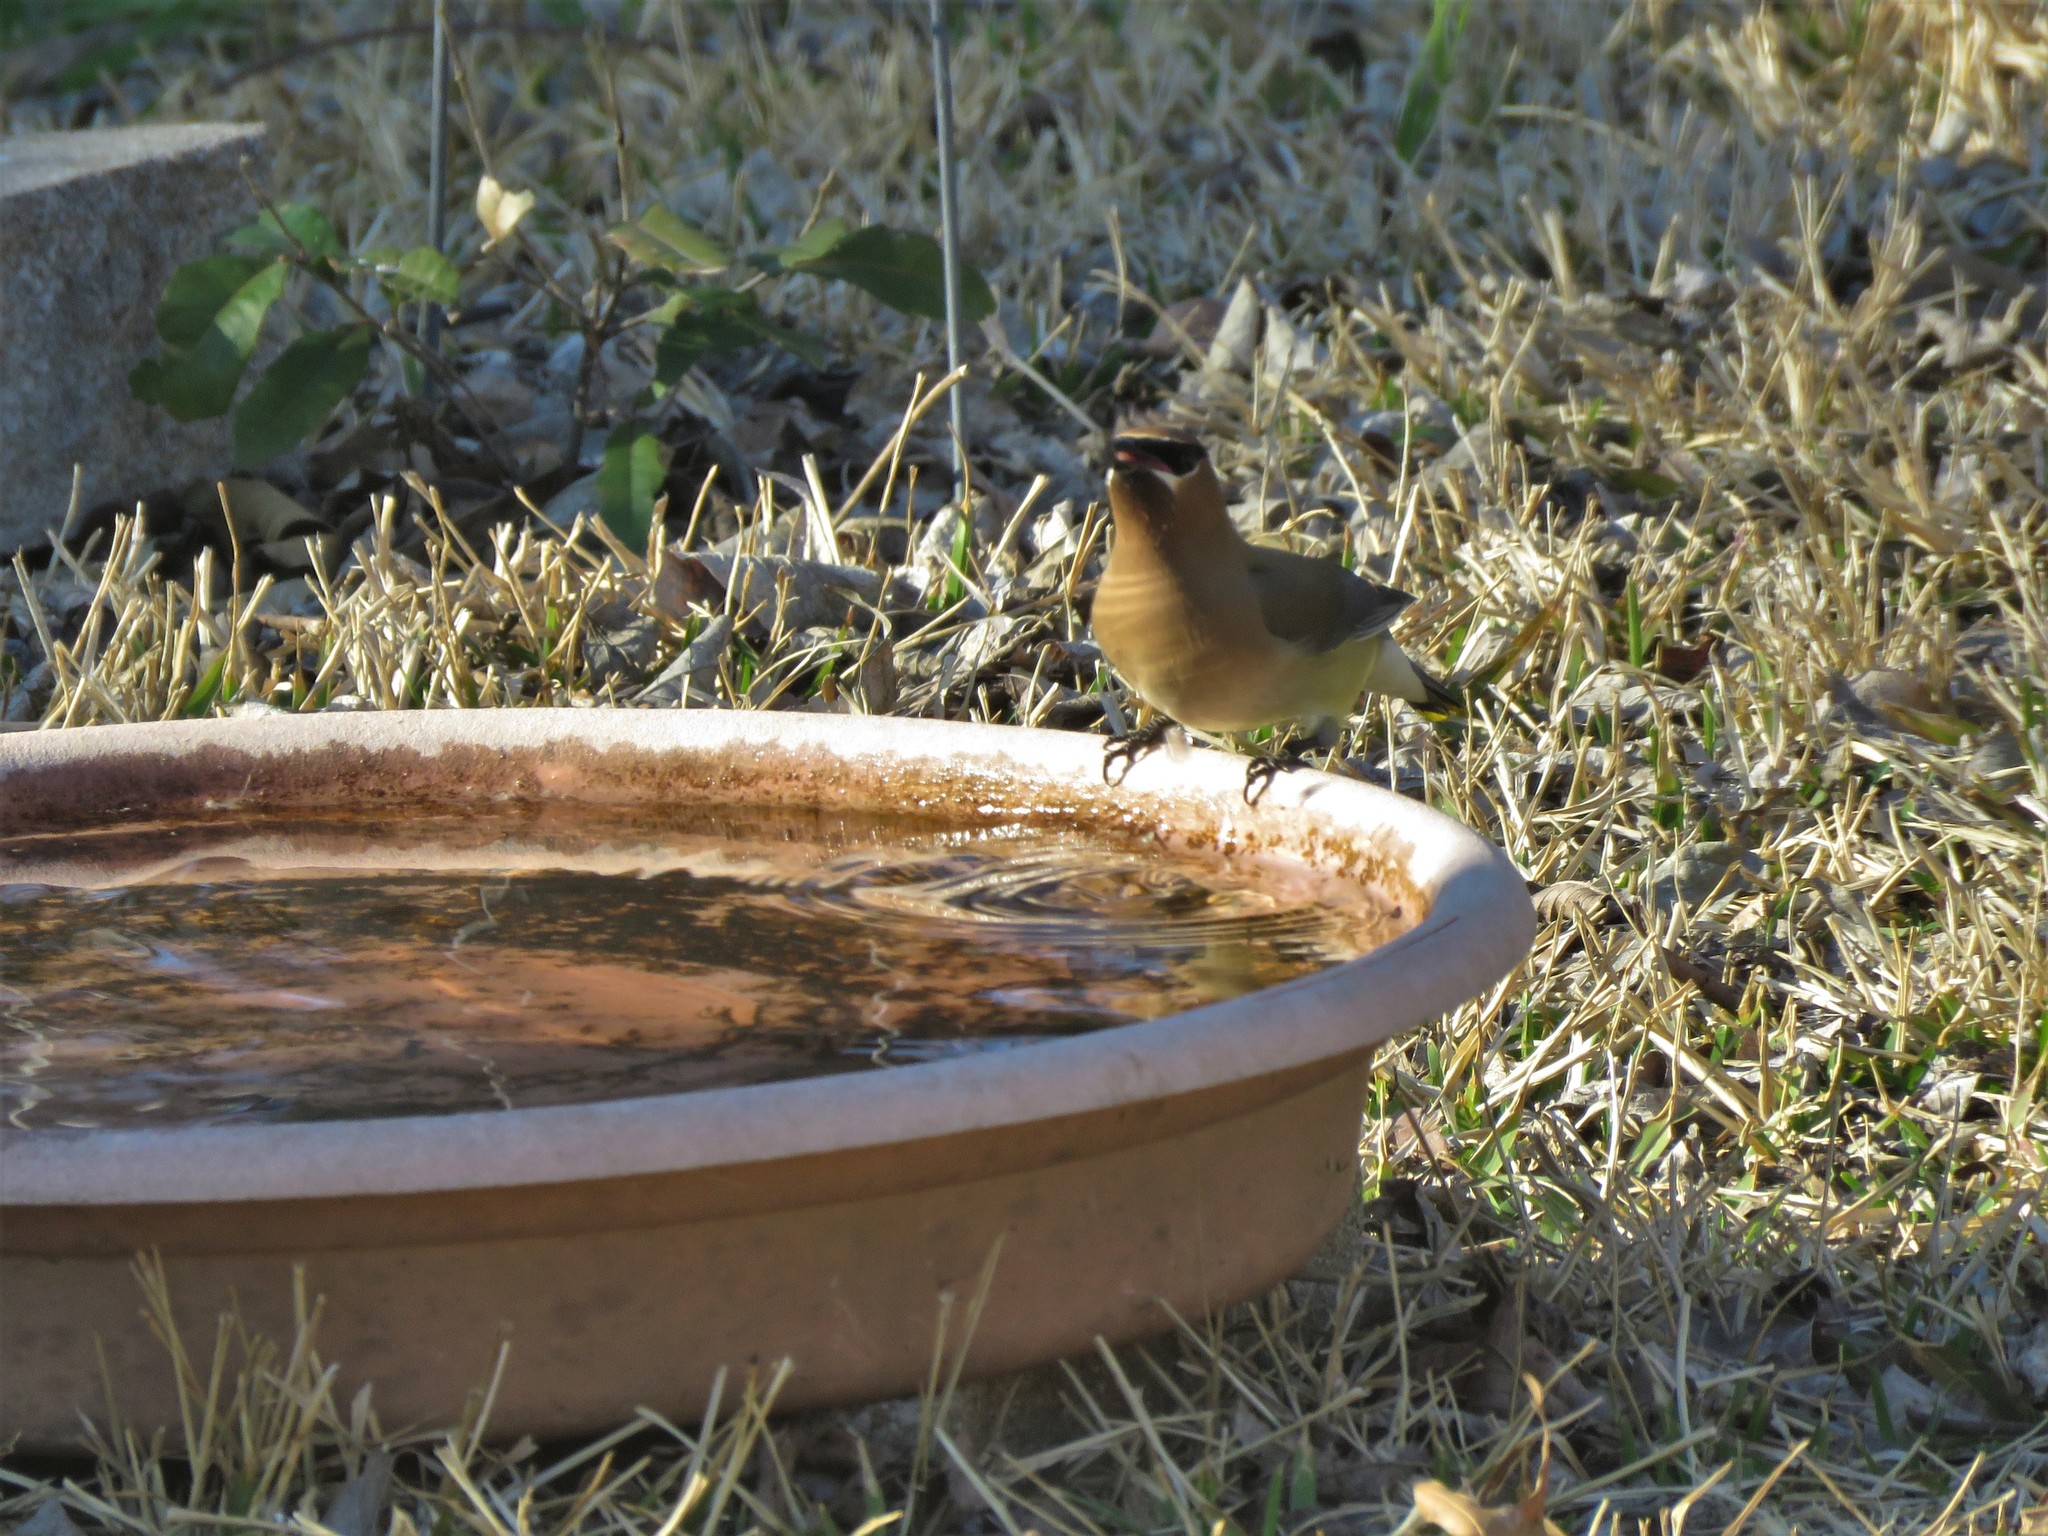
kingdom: Animalia
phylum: Chordata
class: Aves
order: Passeriformes
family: Bombycillidae
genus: Bombycilla
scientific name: Bombycilla cedrorum
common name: Cedar waxwing
